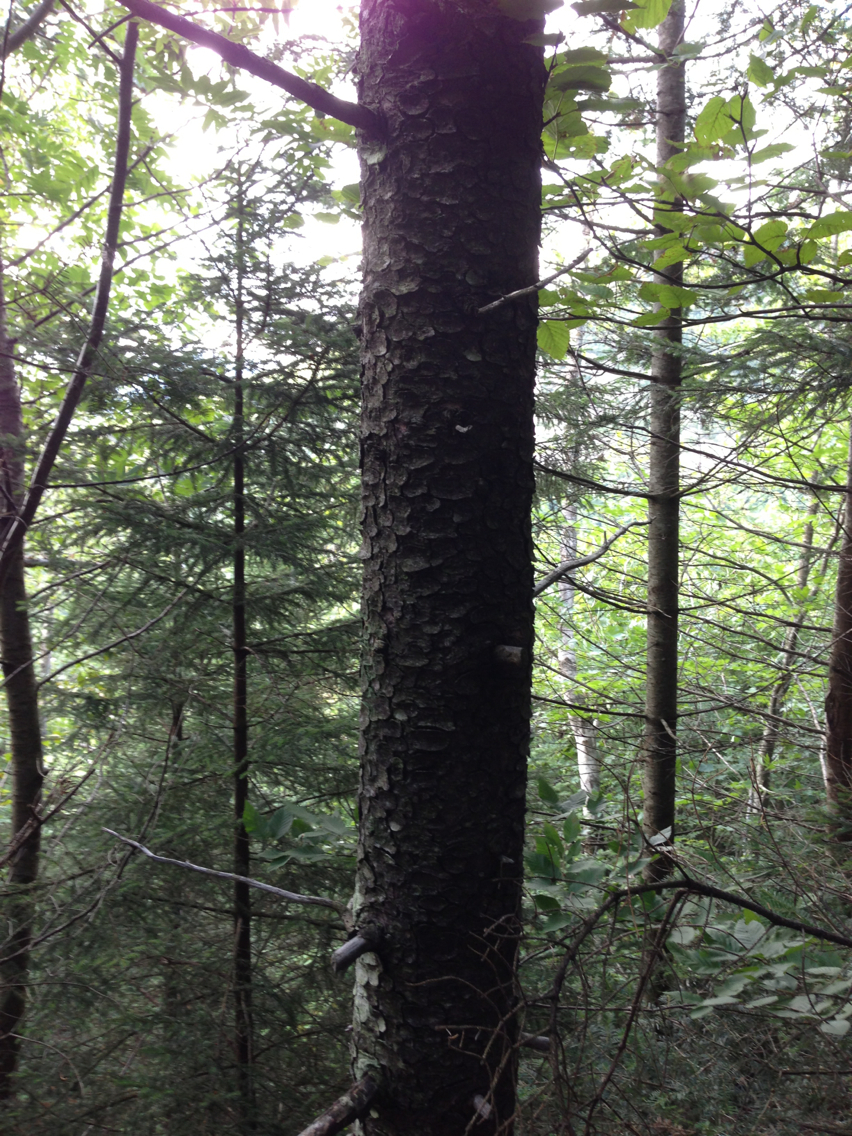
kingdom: Plantae
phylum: Tracheophyta
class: Pinopsida
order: Pinales
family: Pinaceae
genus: Picea
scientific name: Picea rubens
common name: Red spruce
